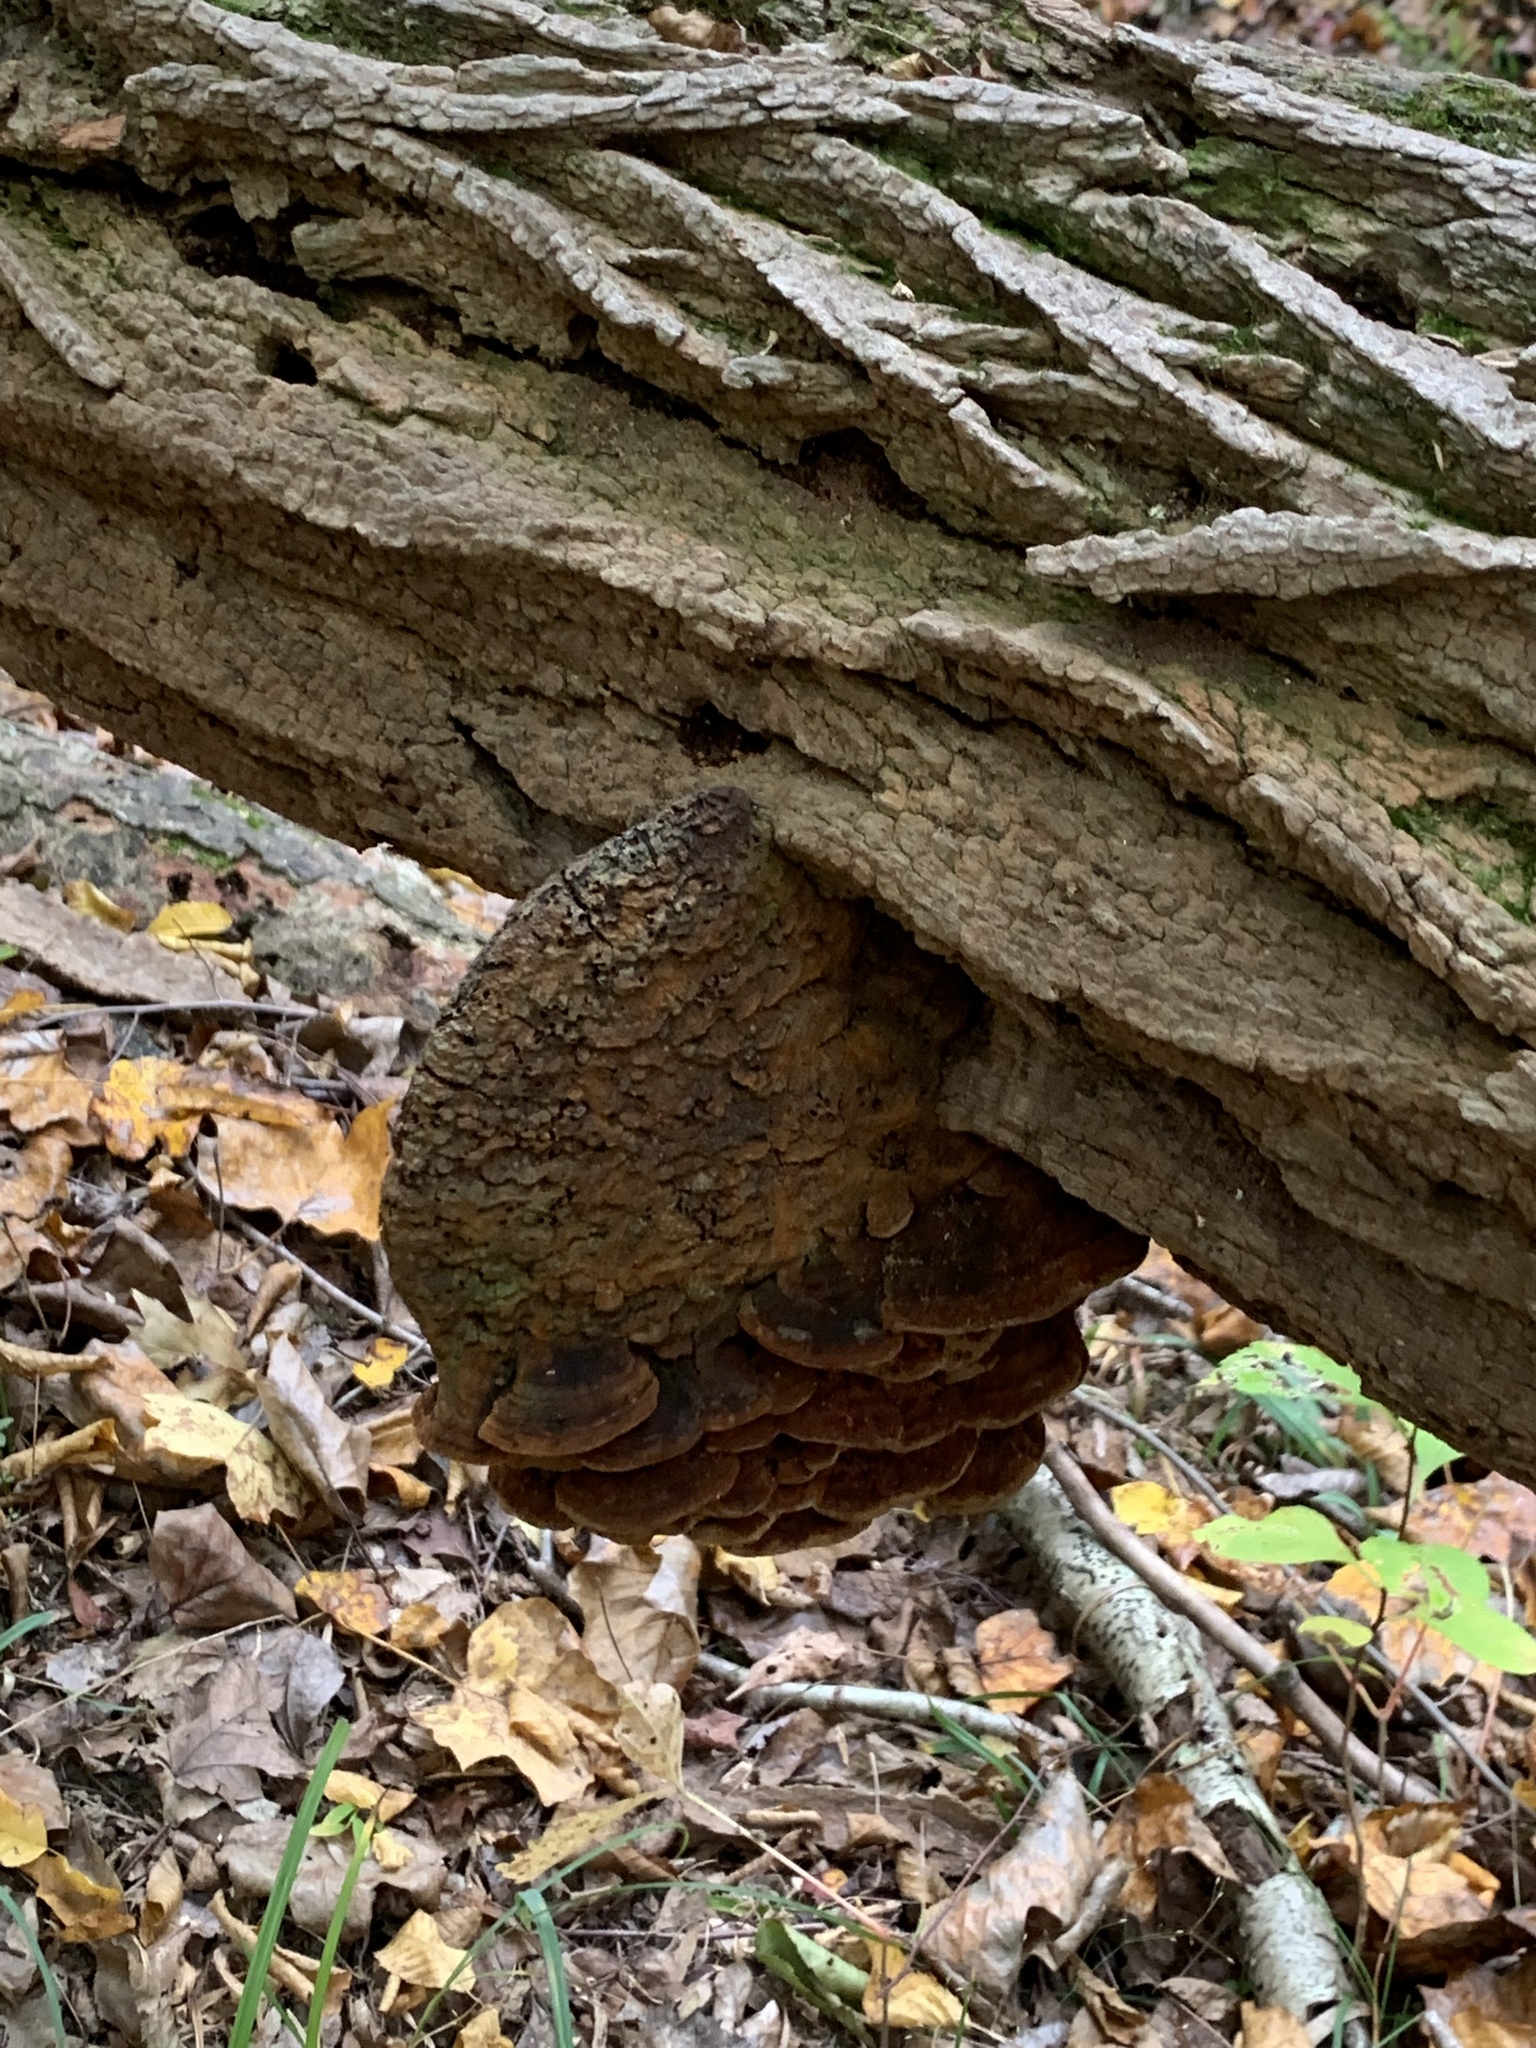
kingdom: Fungi
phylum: Basidiomycota
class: Agaricomycetes
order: Hymenochaetales
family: Hymenochaetaceae
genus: Phellinus
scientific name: Phellinus robiniae
